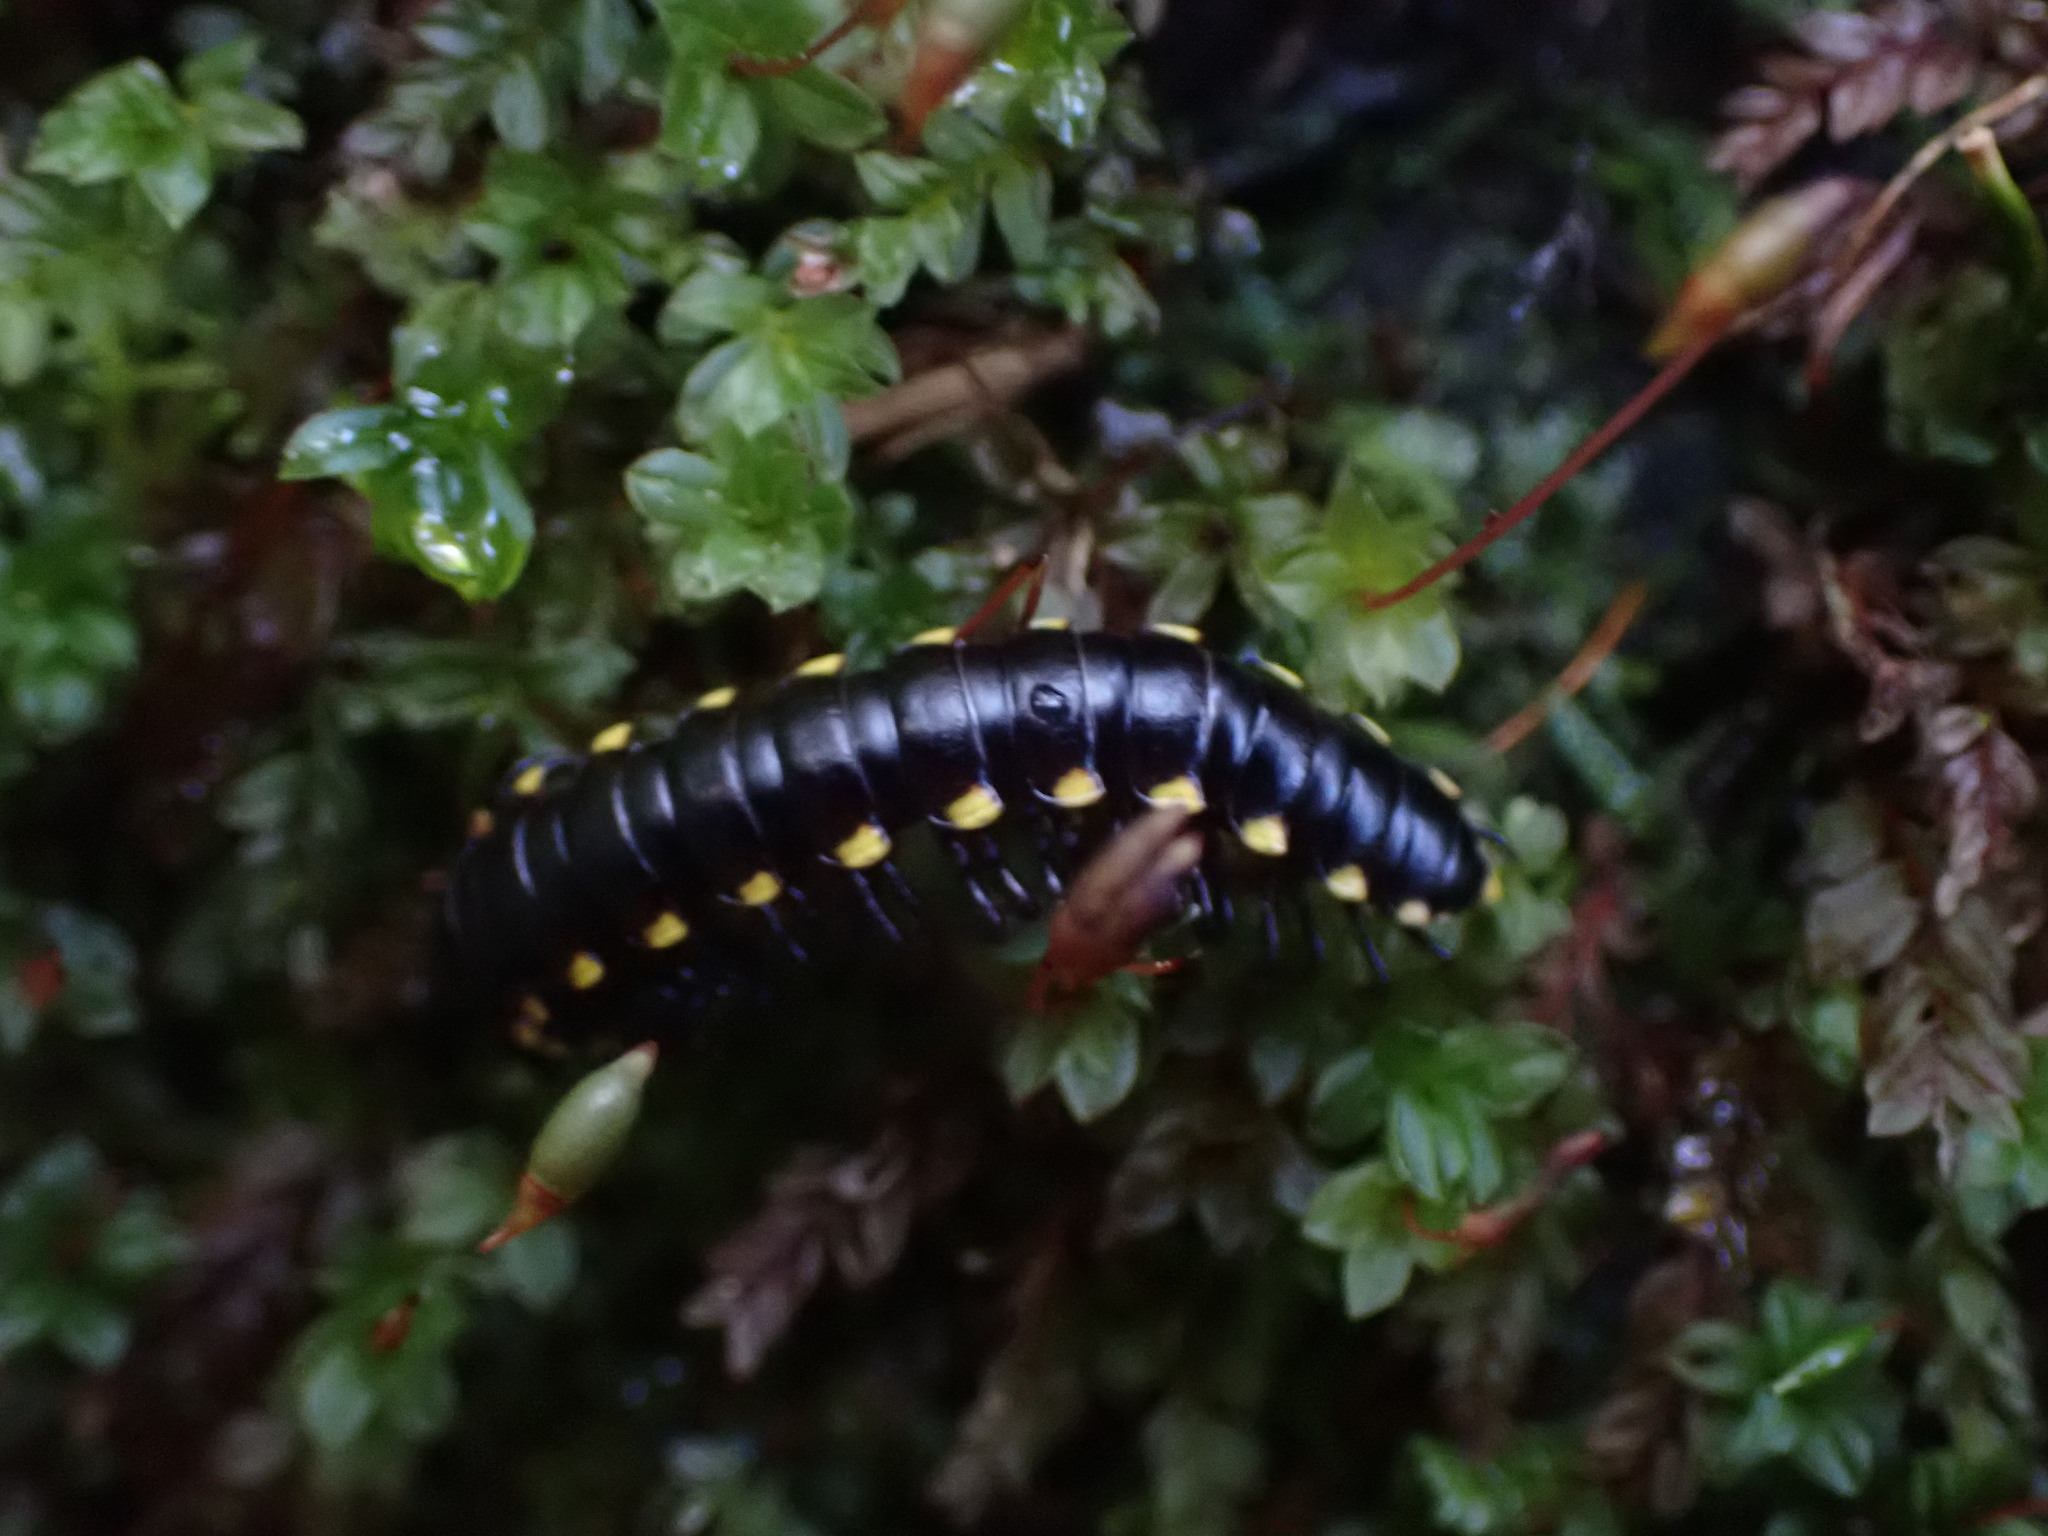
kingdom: Animalia
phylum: Arthropoda
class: Diplopoda
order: Polydesmida
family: Xystodesmidae
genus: Harpaphe
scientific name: Harpaphe haydeniana
